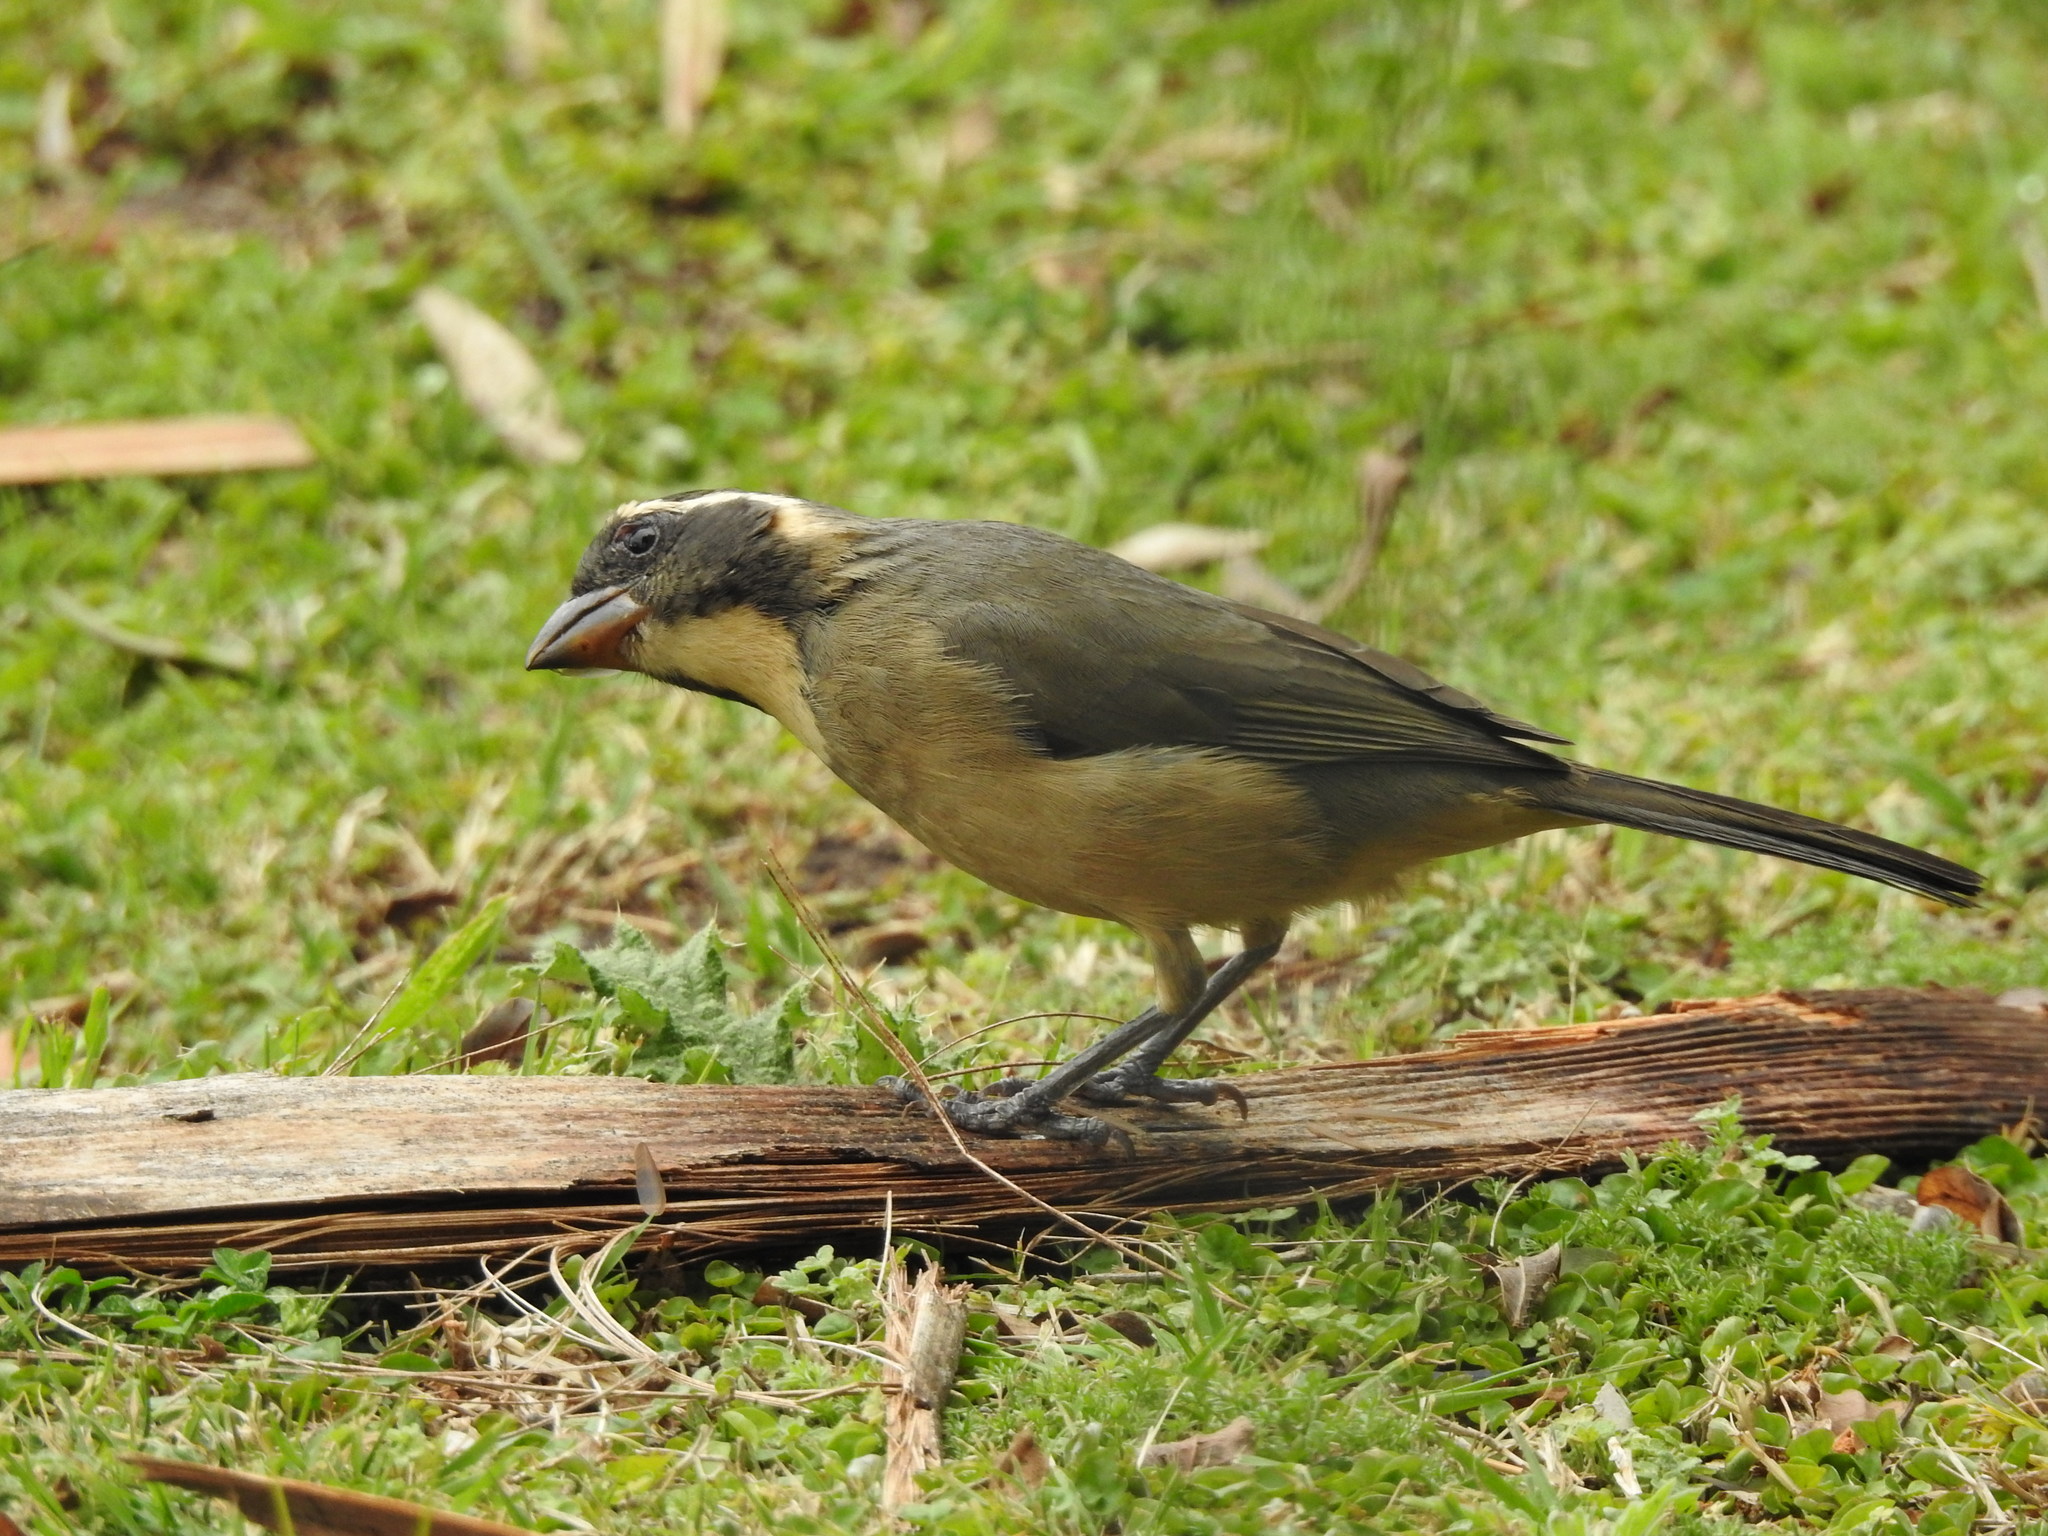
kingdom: Animalia
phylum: Chordata
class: Aves
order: Passeriformes
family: Thraupidae
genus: Saltator
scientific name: Saltator aurantiirostris
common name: Golden-billed saltator
